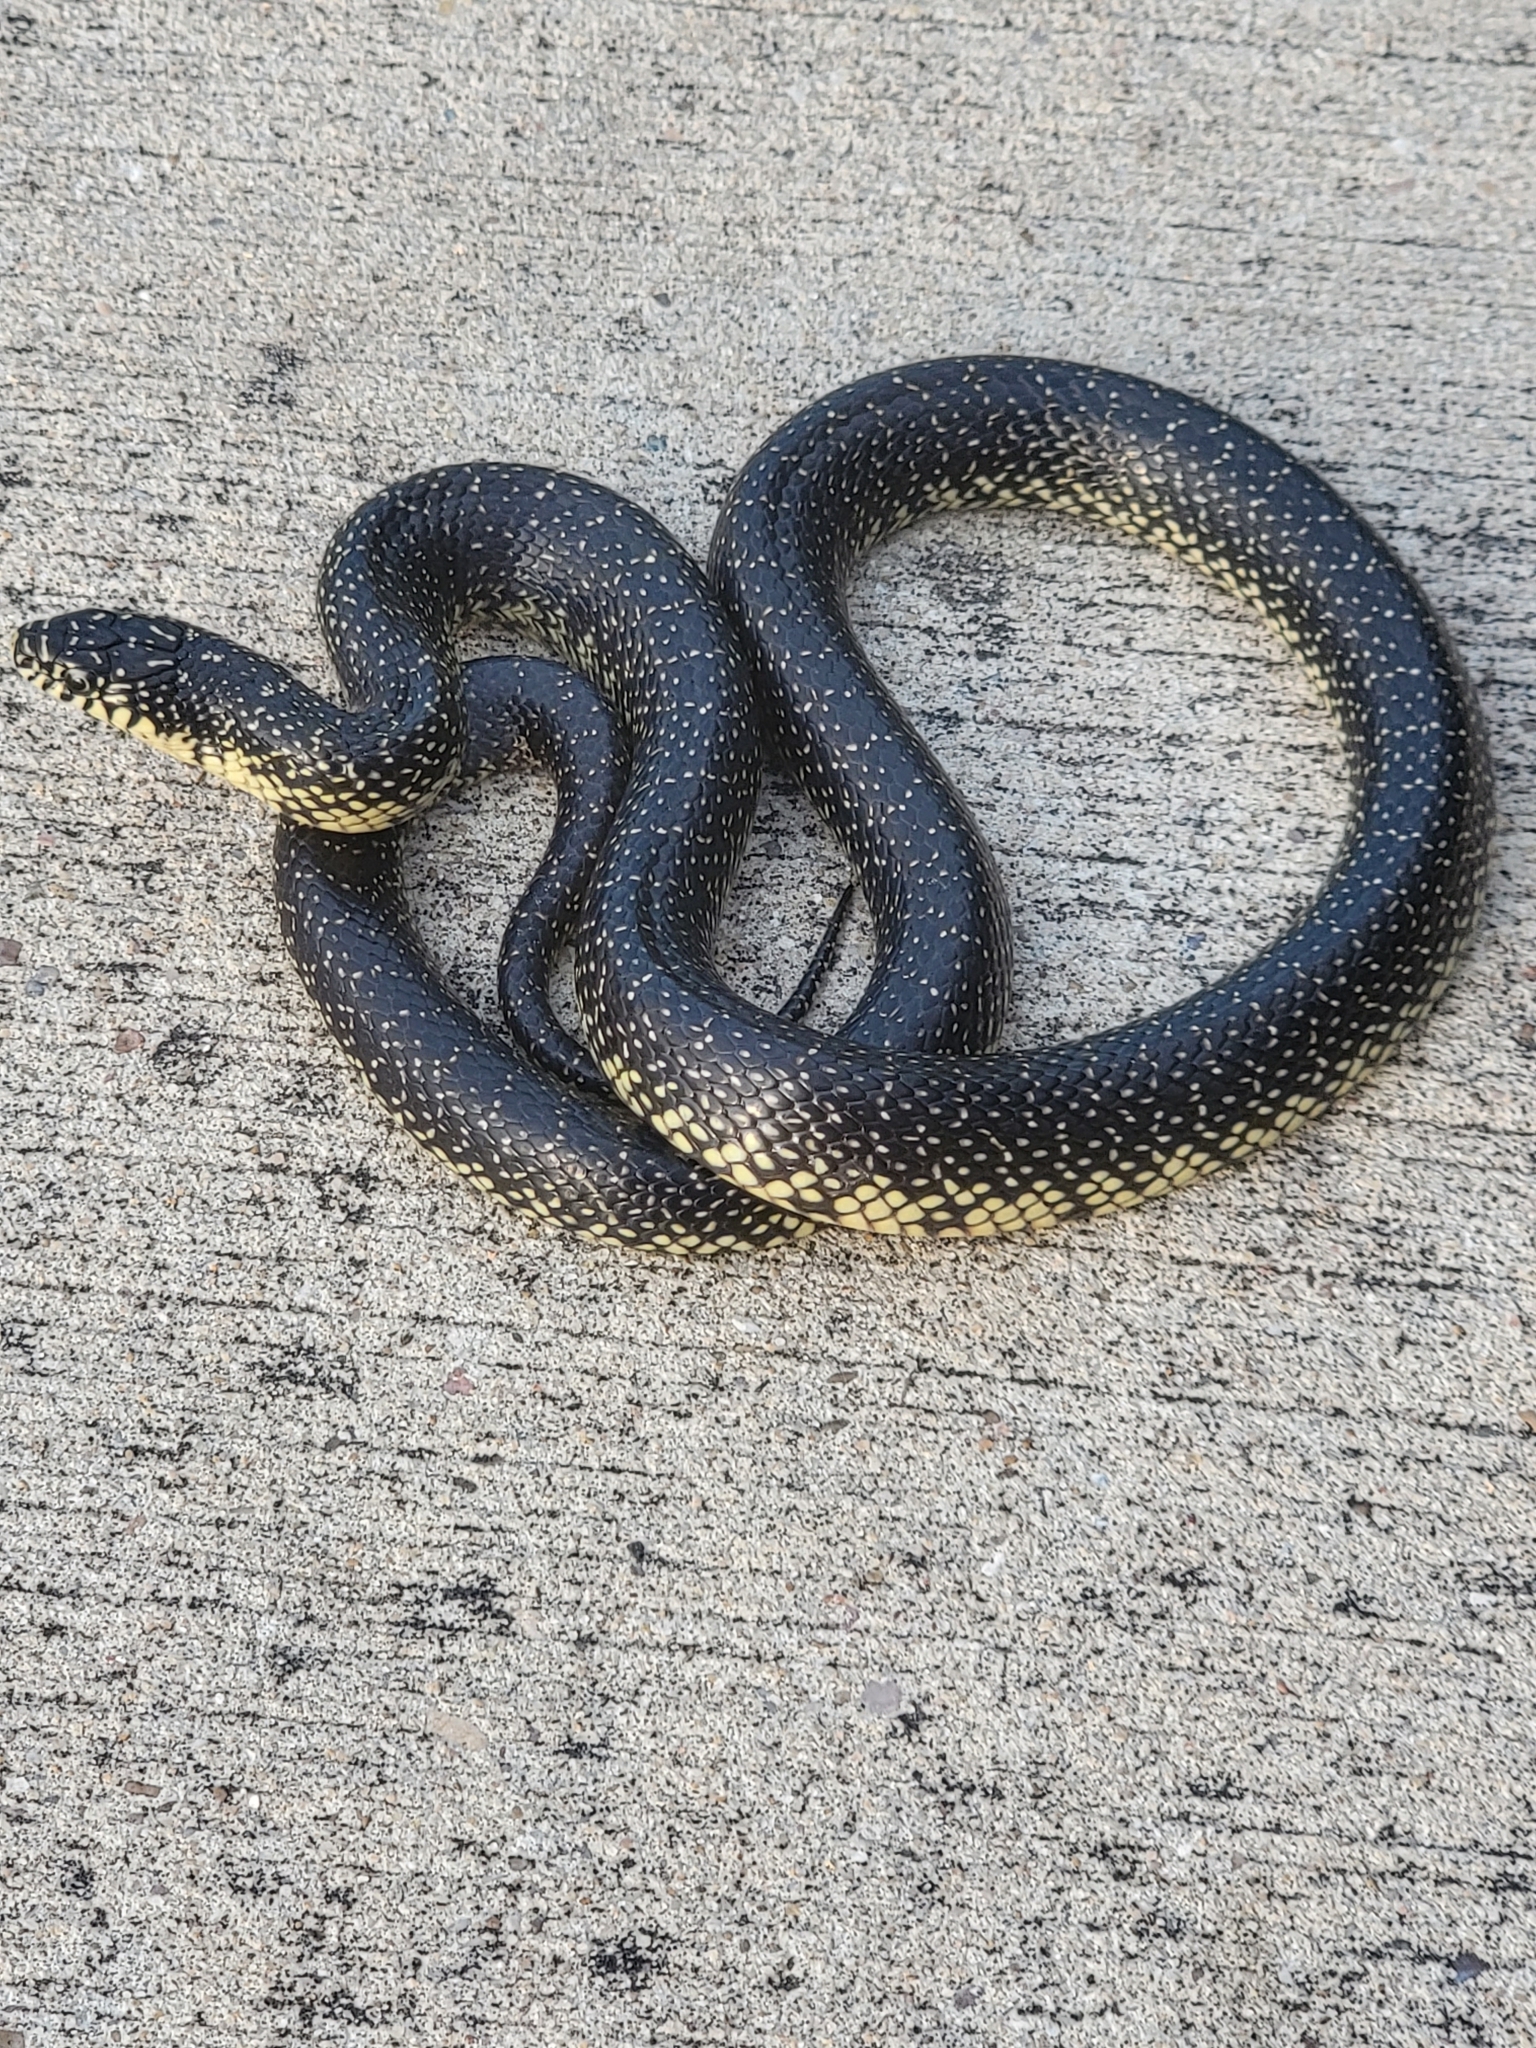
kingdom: Animalia
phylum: Chordata
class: Squamata
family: Colubridae
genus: Lampropeltis
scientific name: Lampropeltis holbrooki
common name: Speckled kingsnake
